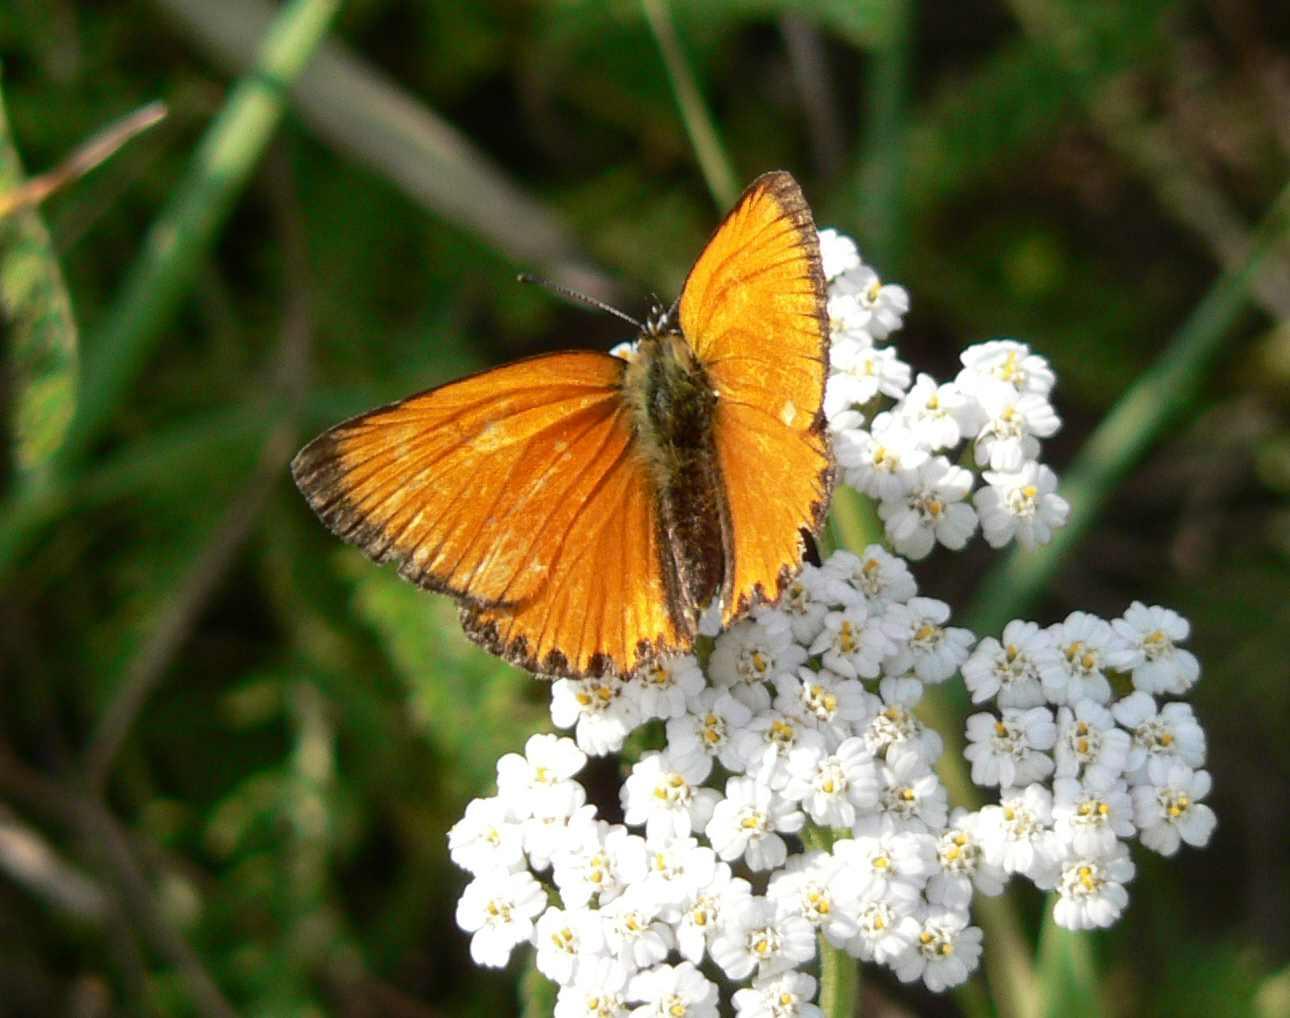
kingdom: Animalia
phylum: Arthropoda
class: Insecta
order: Lepidoptera
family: Lycaenidae
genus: Lycaena
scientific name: Lycaena virgaureae
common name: Scarce copper
